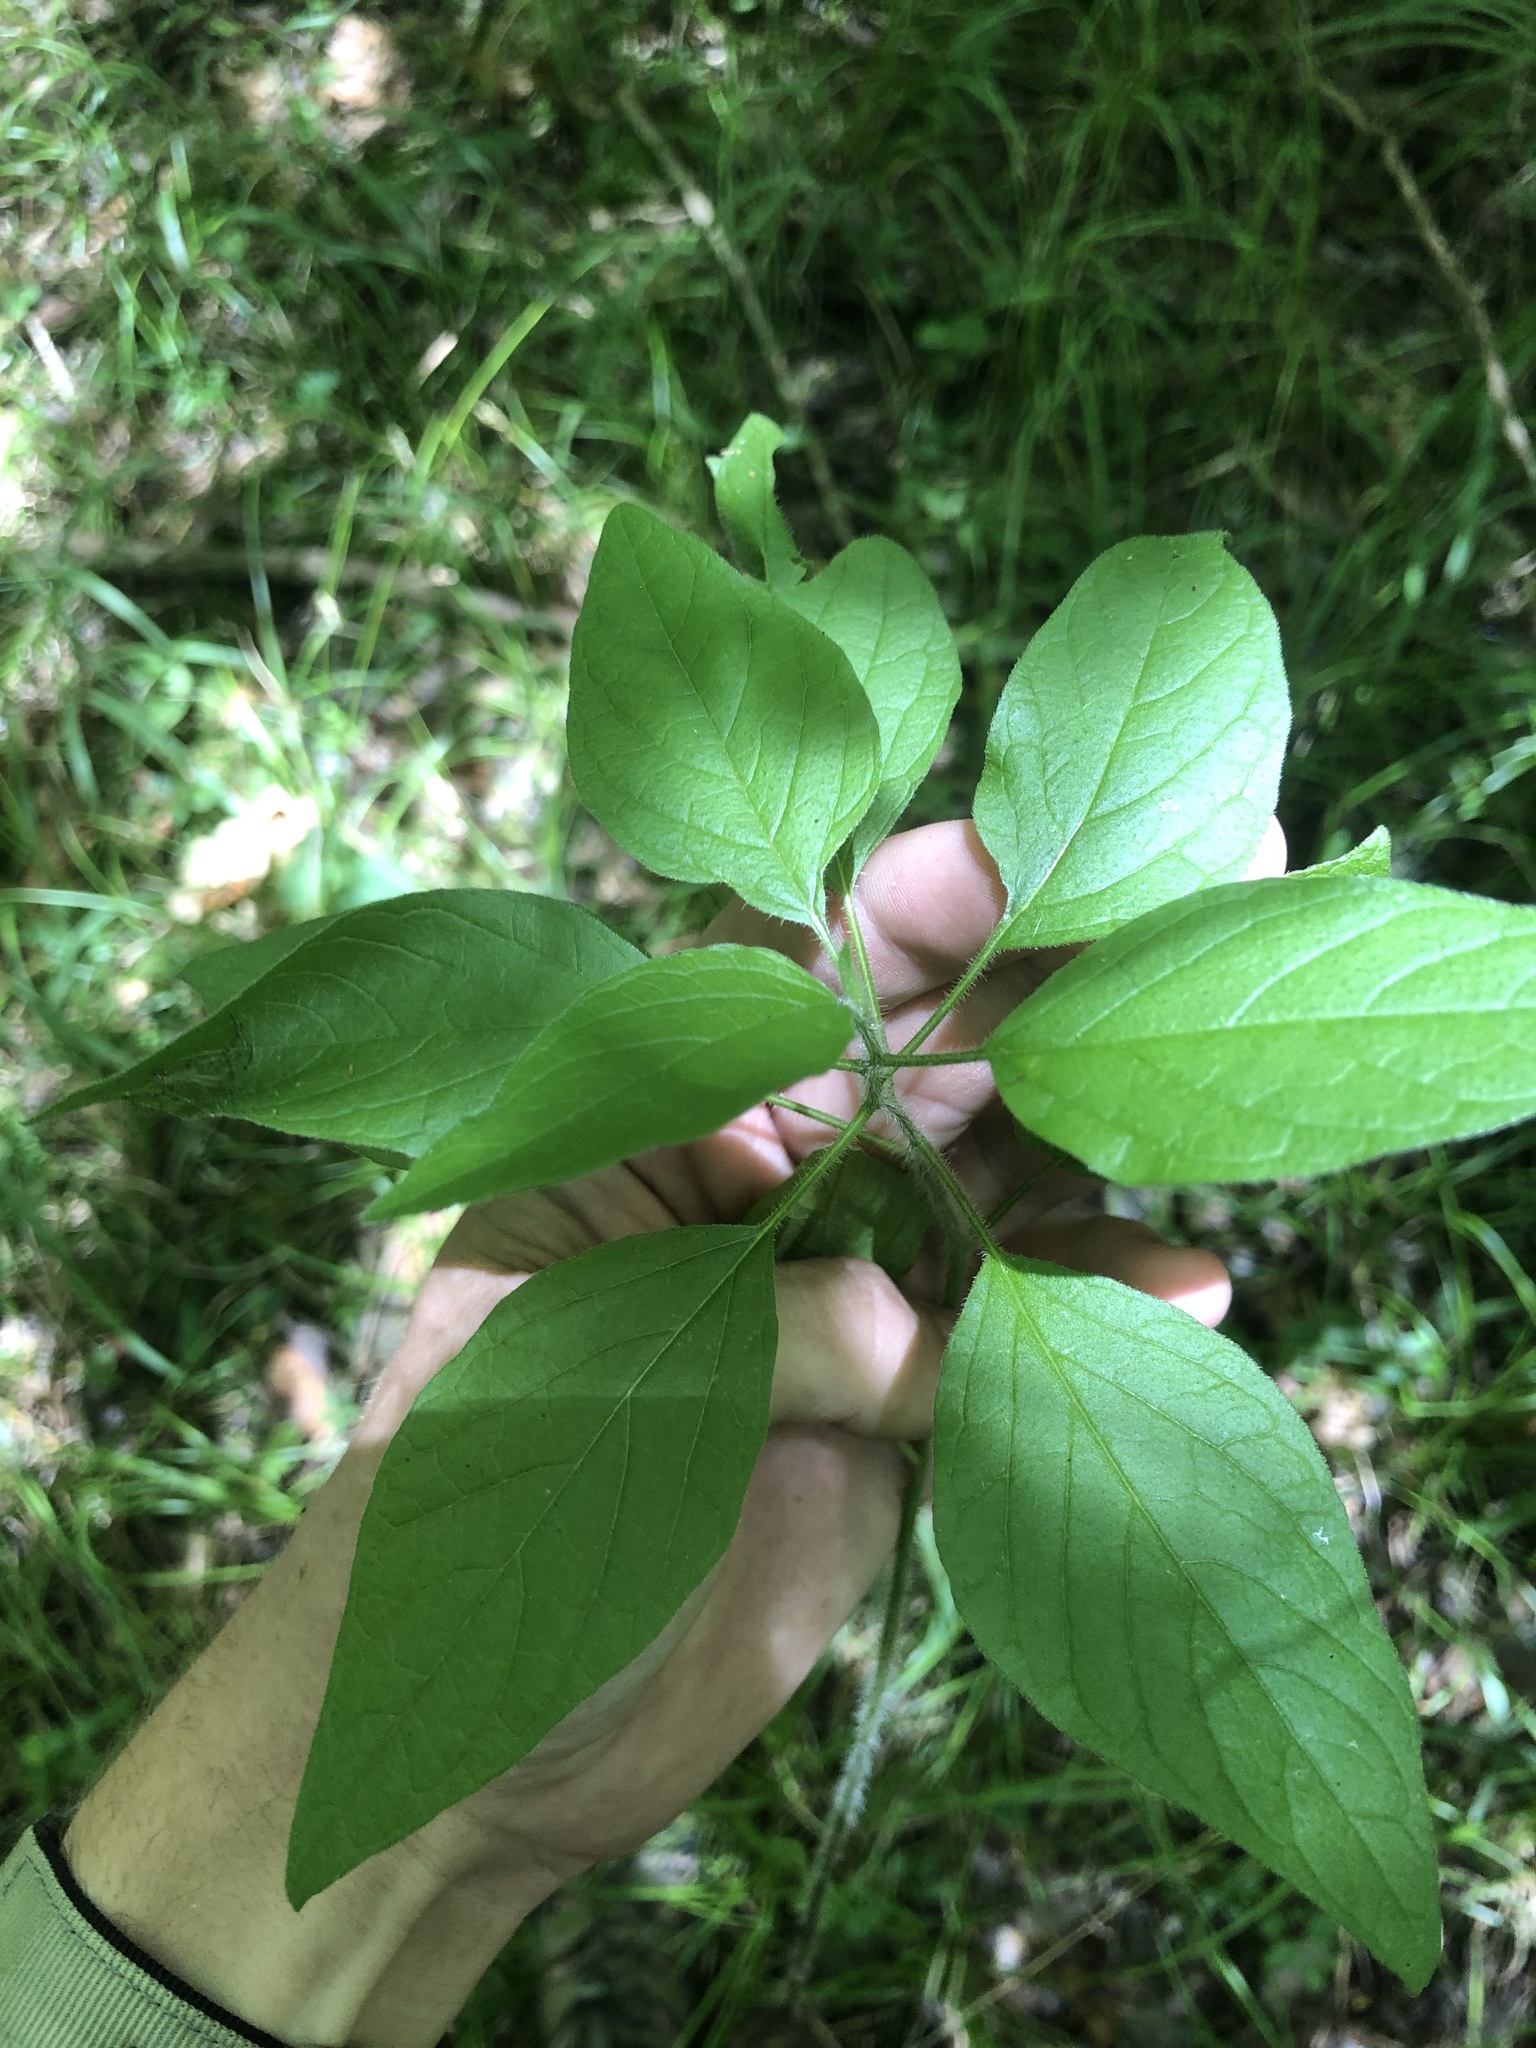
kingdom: Plantae
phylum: Tracheophyta
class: Magnoliopsida
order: Solanales
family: Solanaceae
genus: Physalis
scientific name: Physalis heterophylla
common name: Clammy ground-cherry
